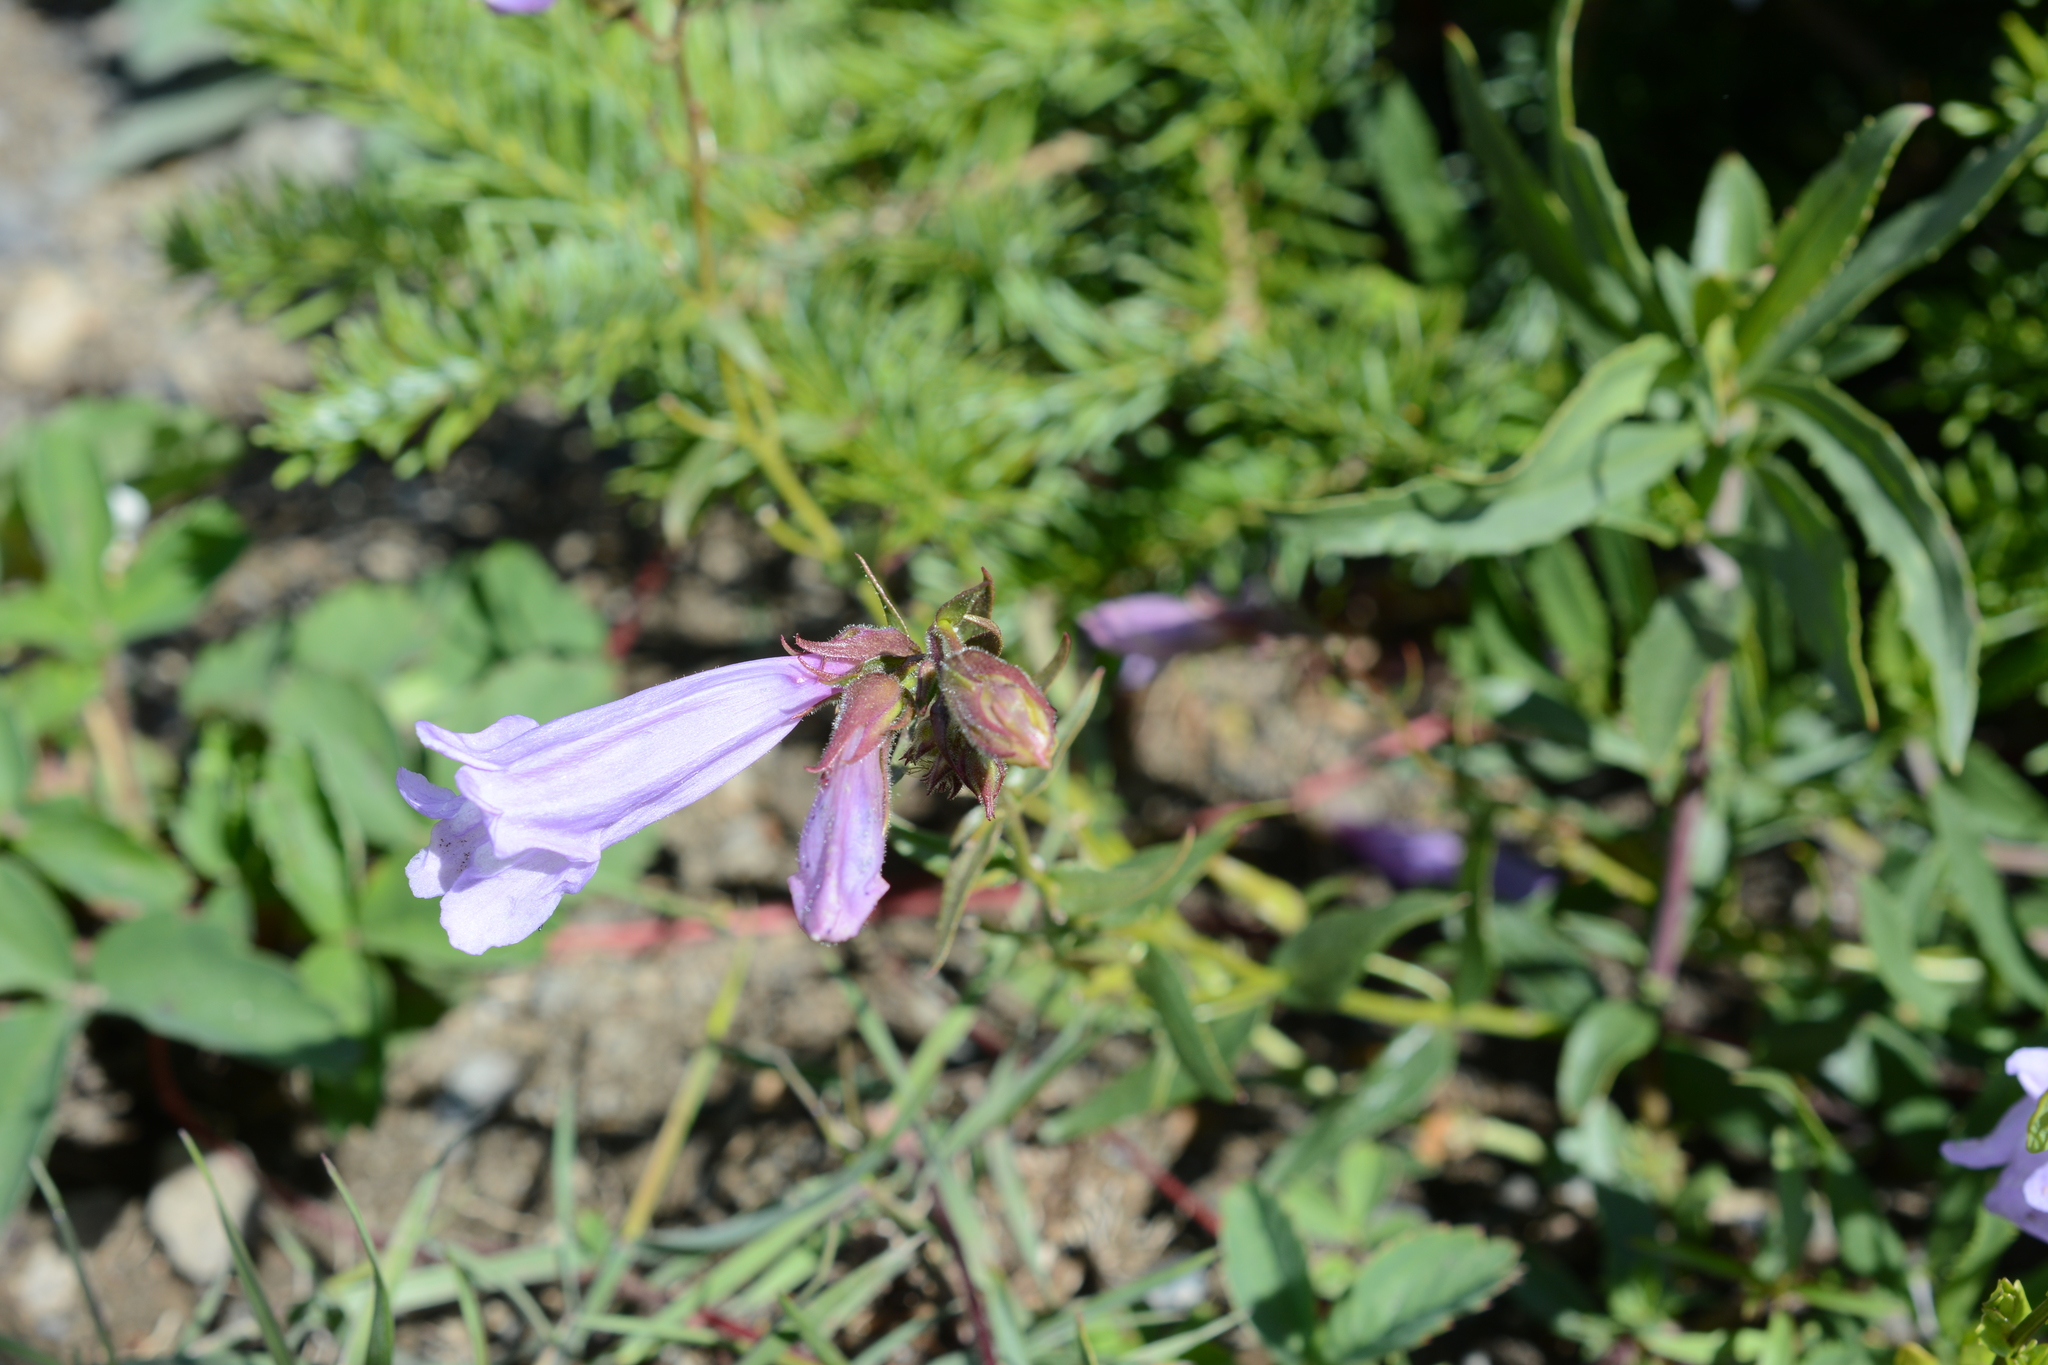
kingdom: Plantae
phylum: Tracheophyta
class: Magnoliopsida
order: Lamiales
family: Plantaginaceae
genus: Penstemon
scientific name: Penstemon fruticosus
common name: Bush penstemon
